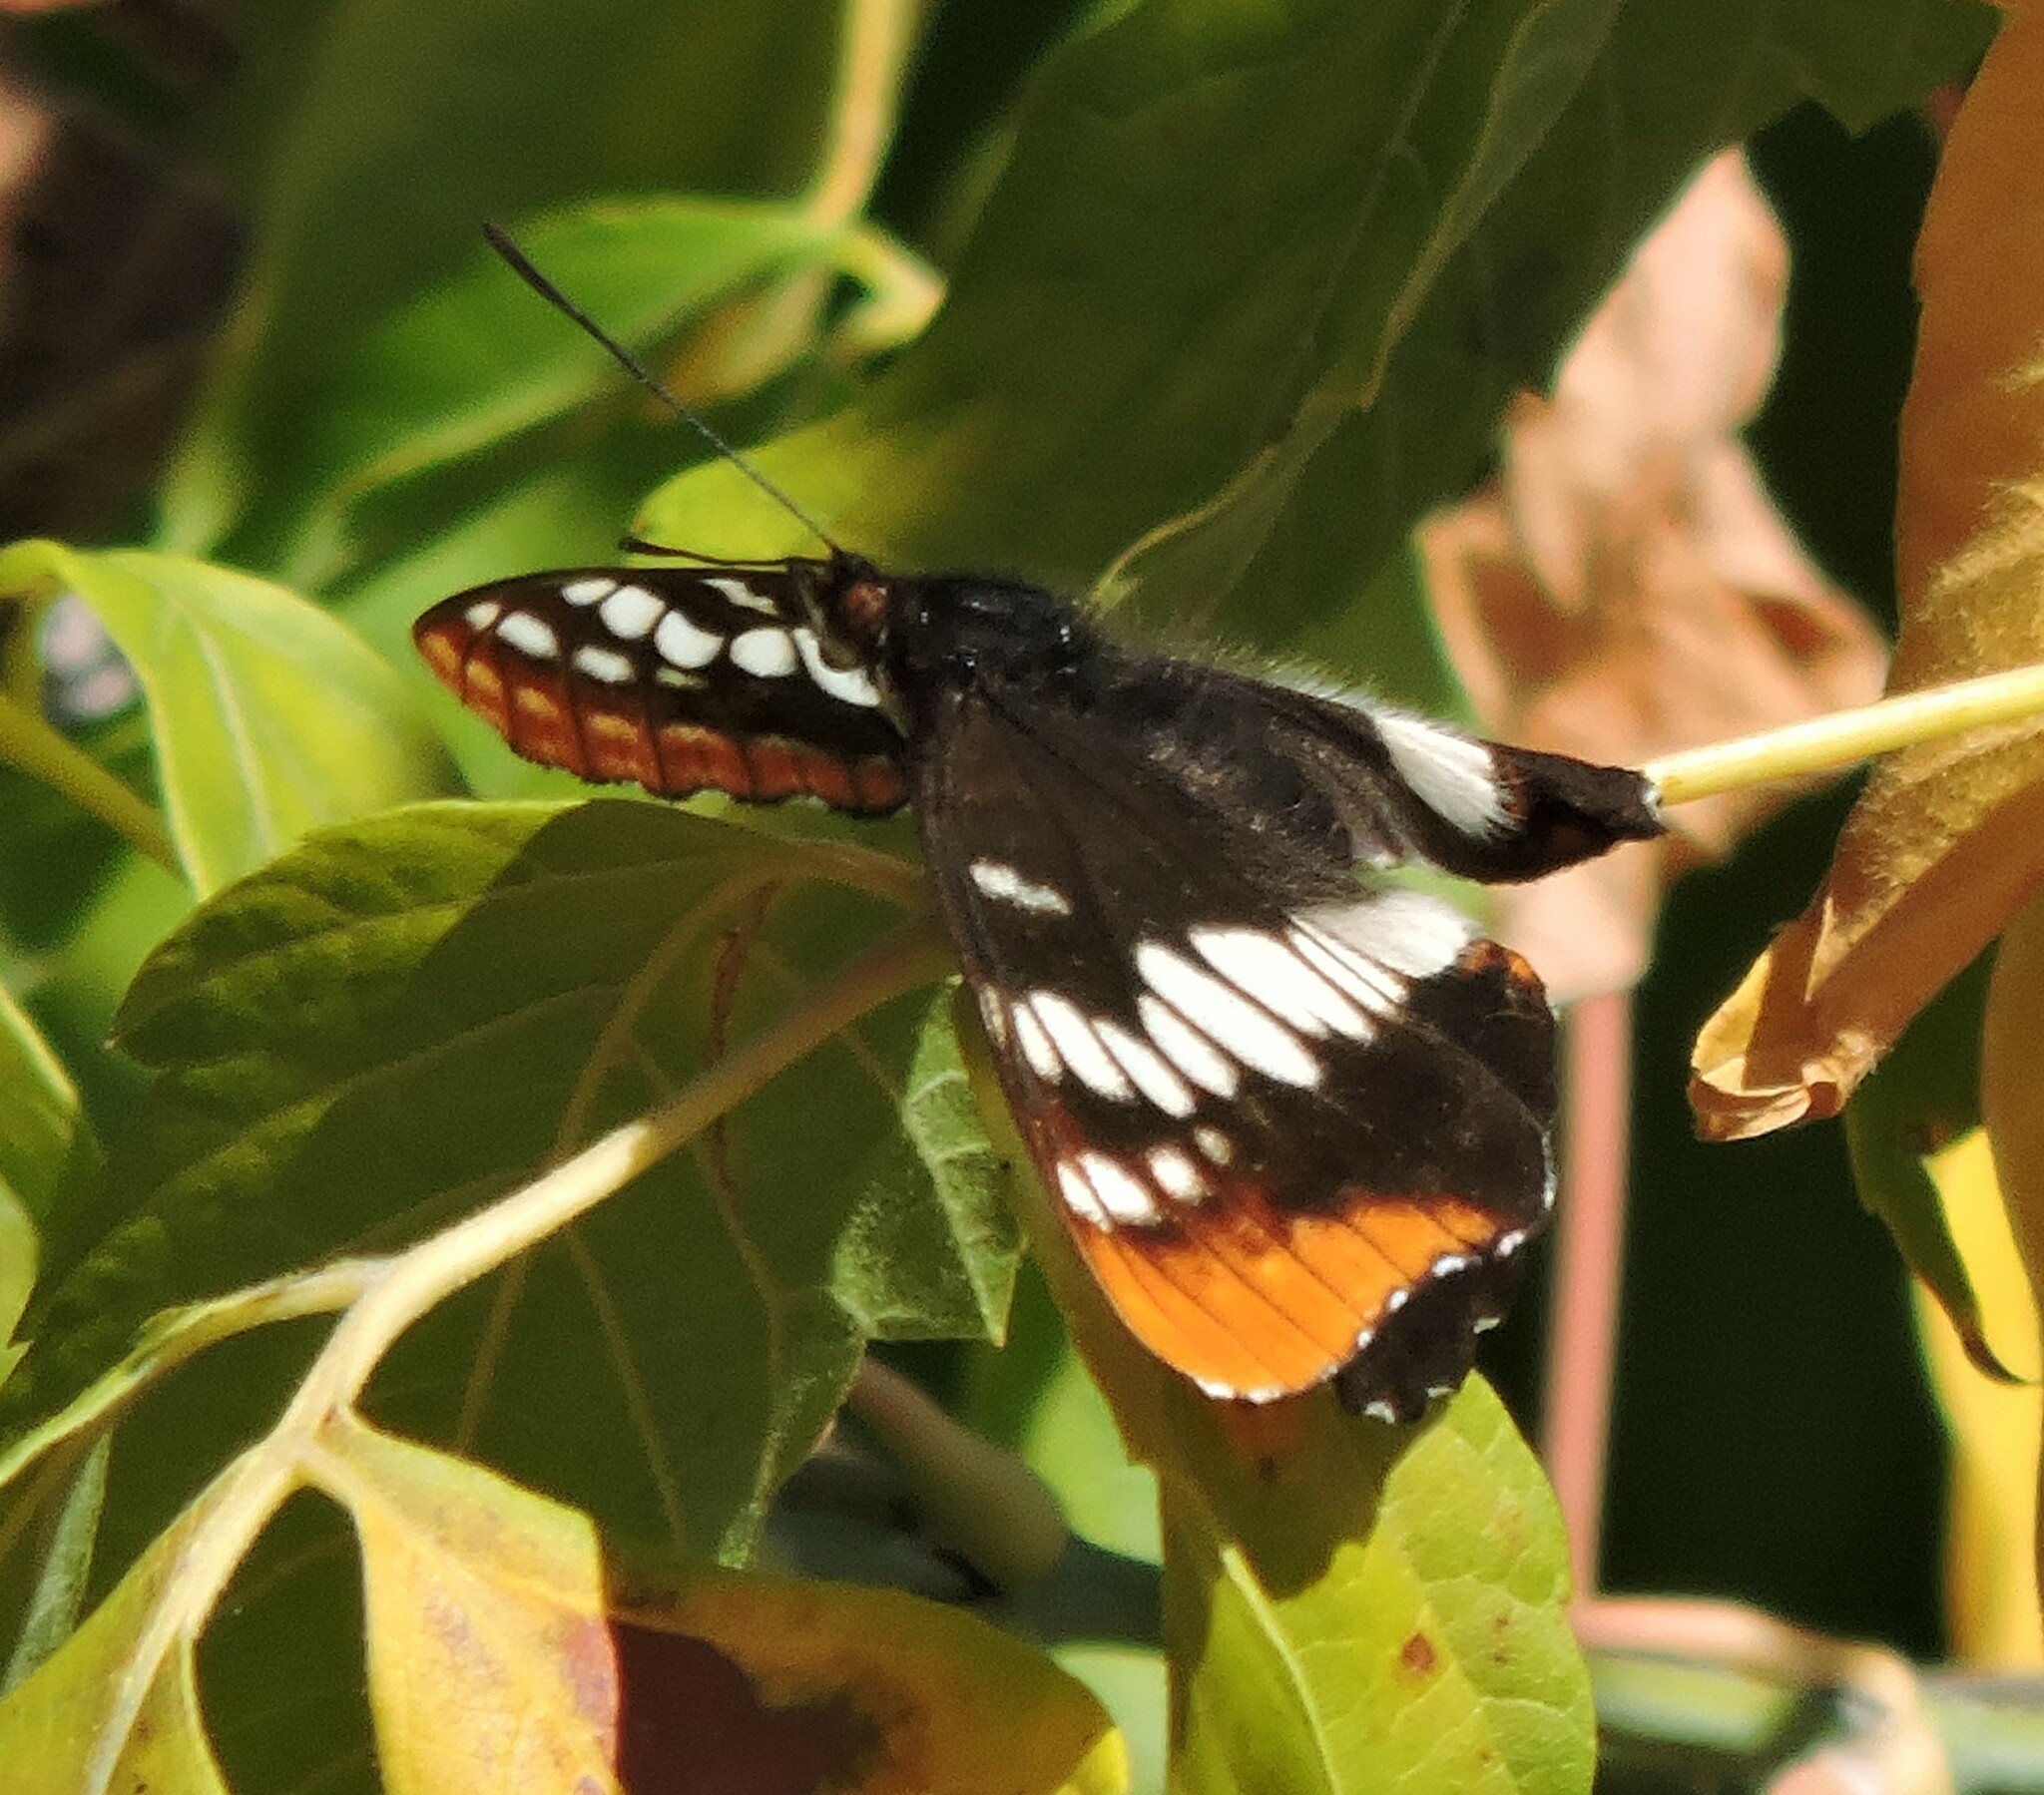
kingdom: Animalia
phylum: Arthropoda
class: Insecta
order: Lepidoptera
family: Nymphalidae
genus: Limenitis
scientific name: Limenitis lorquini
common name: Lorquin's admiral
